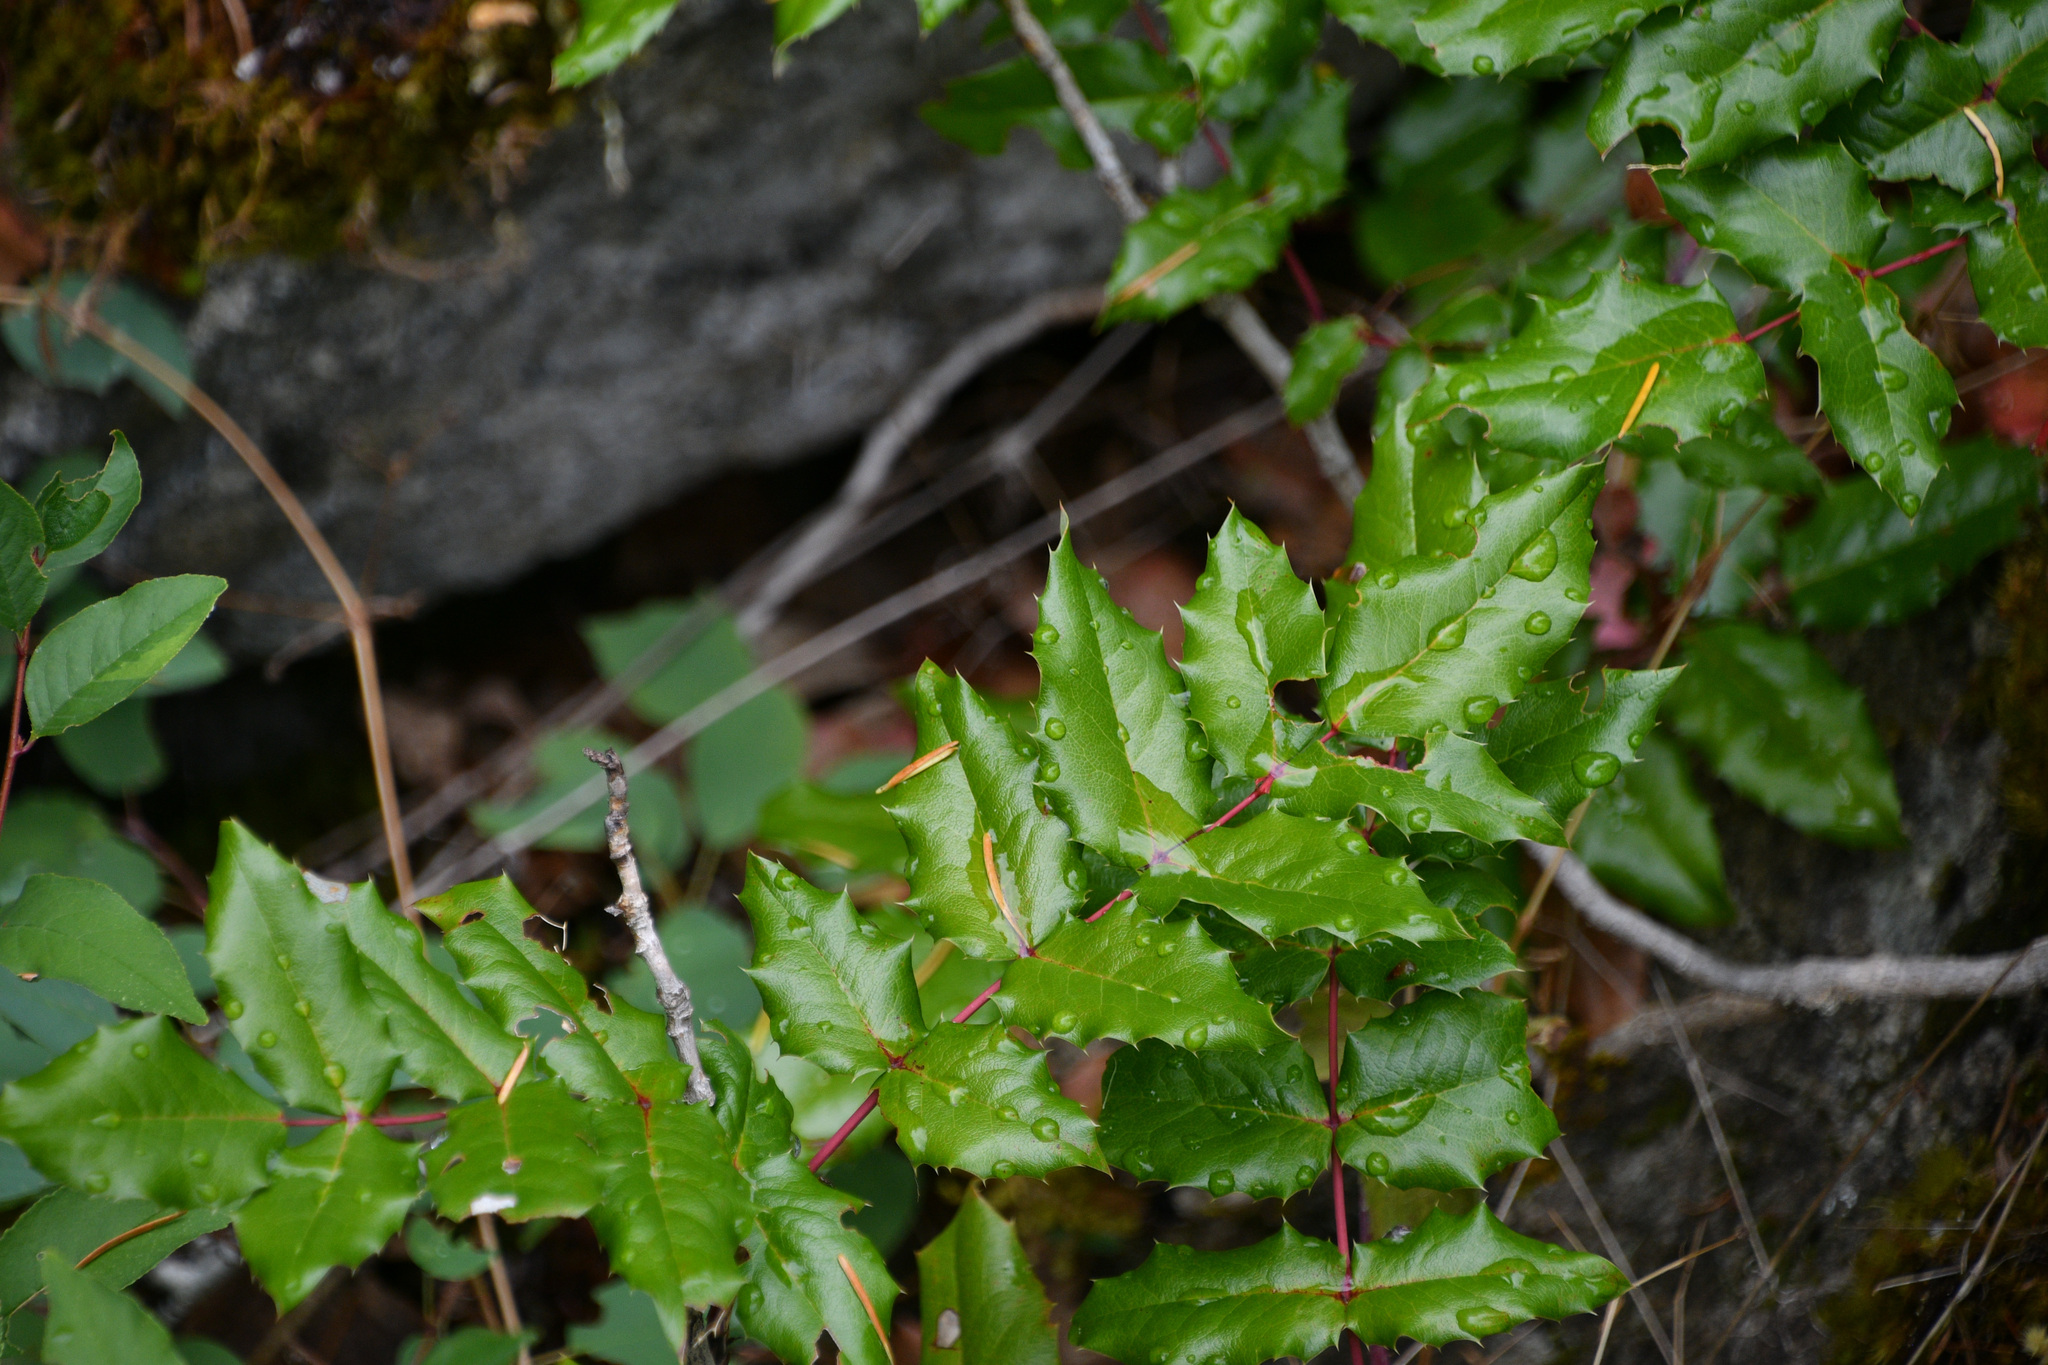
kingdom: Plantae
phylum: Tracheophyta
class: Magnoliopsida
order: Ranunculales
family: Berberidaceae
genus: Mahonia
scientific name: Mahonia aquifolium
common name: Oregon-grape
